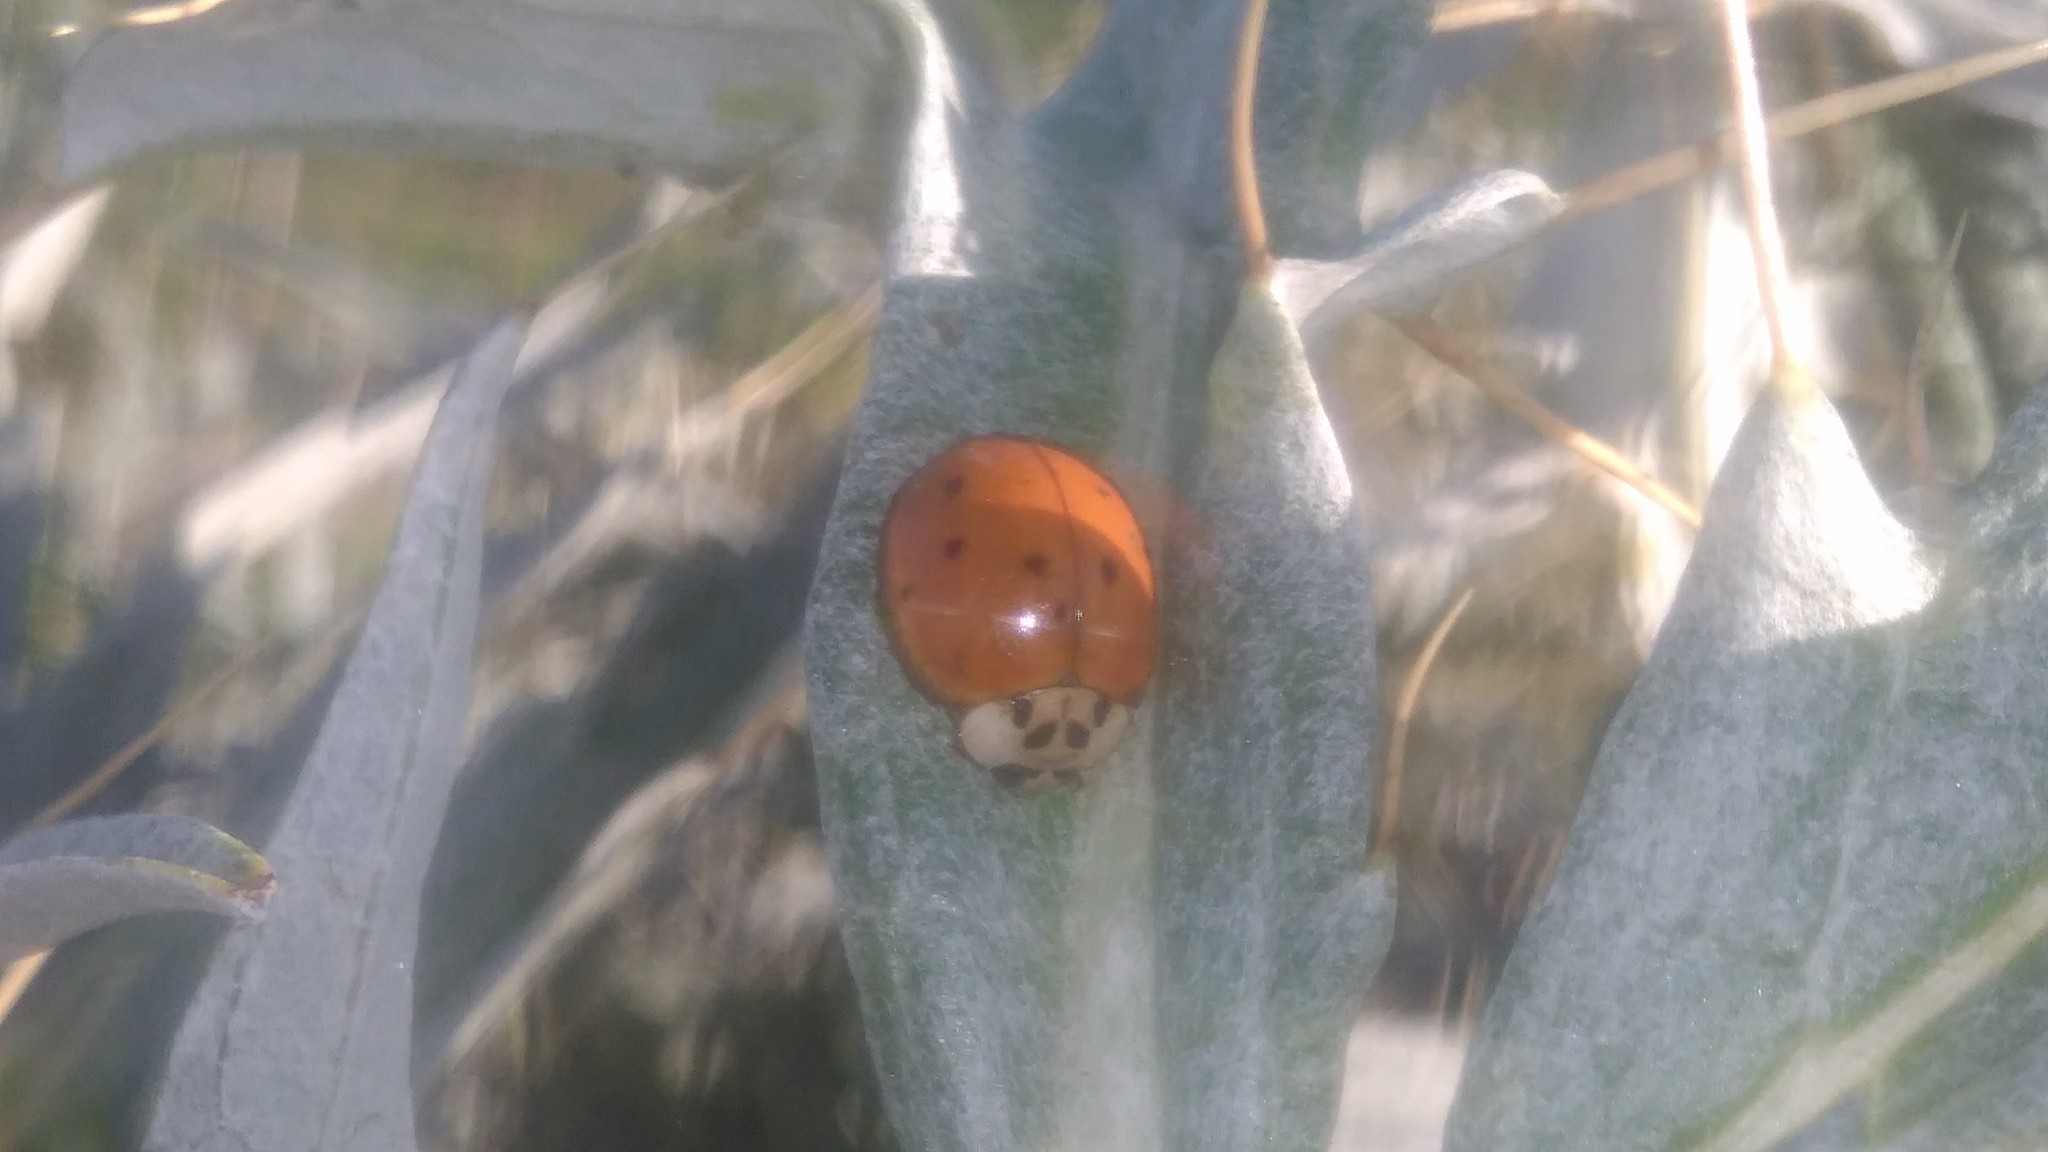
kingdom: Animalia
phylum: Arthropoda
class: Insecta
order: Coleoptera
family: Coccinellidae
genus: Harmonia
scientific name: Harmonia axyridis
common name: Harlequin ladybird
